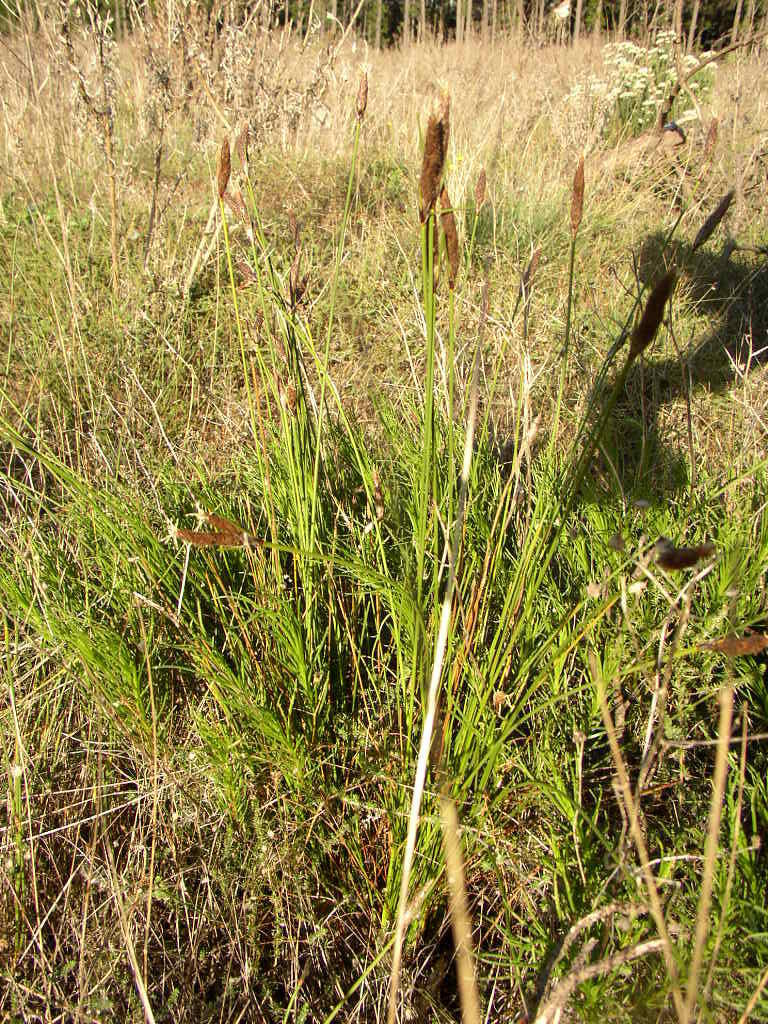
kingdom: Plantae
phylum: Tracheophyta
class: Liliopsida
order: Poales
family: Cyperaceae
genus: Ficinia
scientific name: Ficinia deusta
